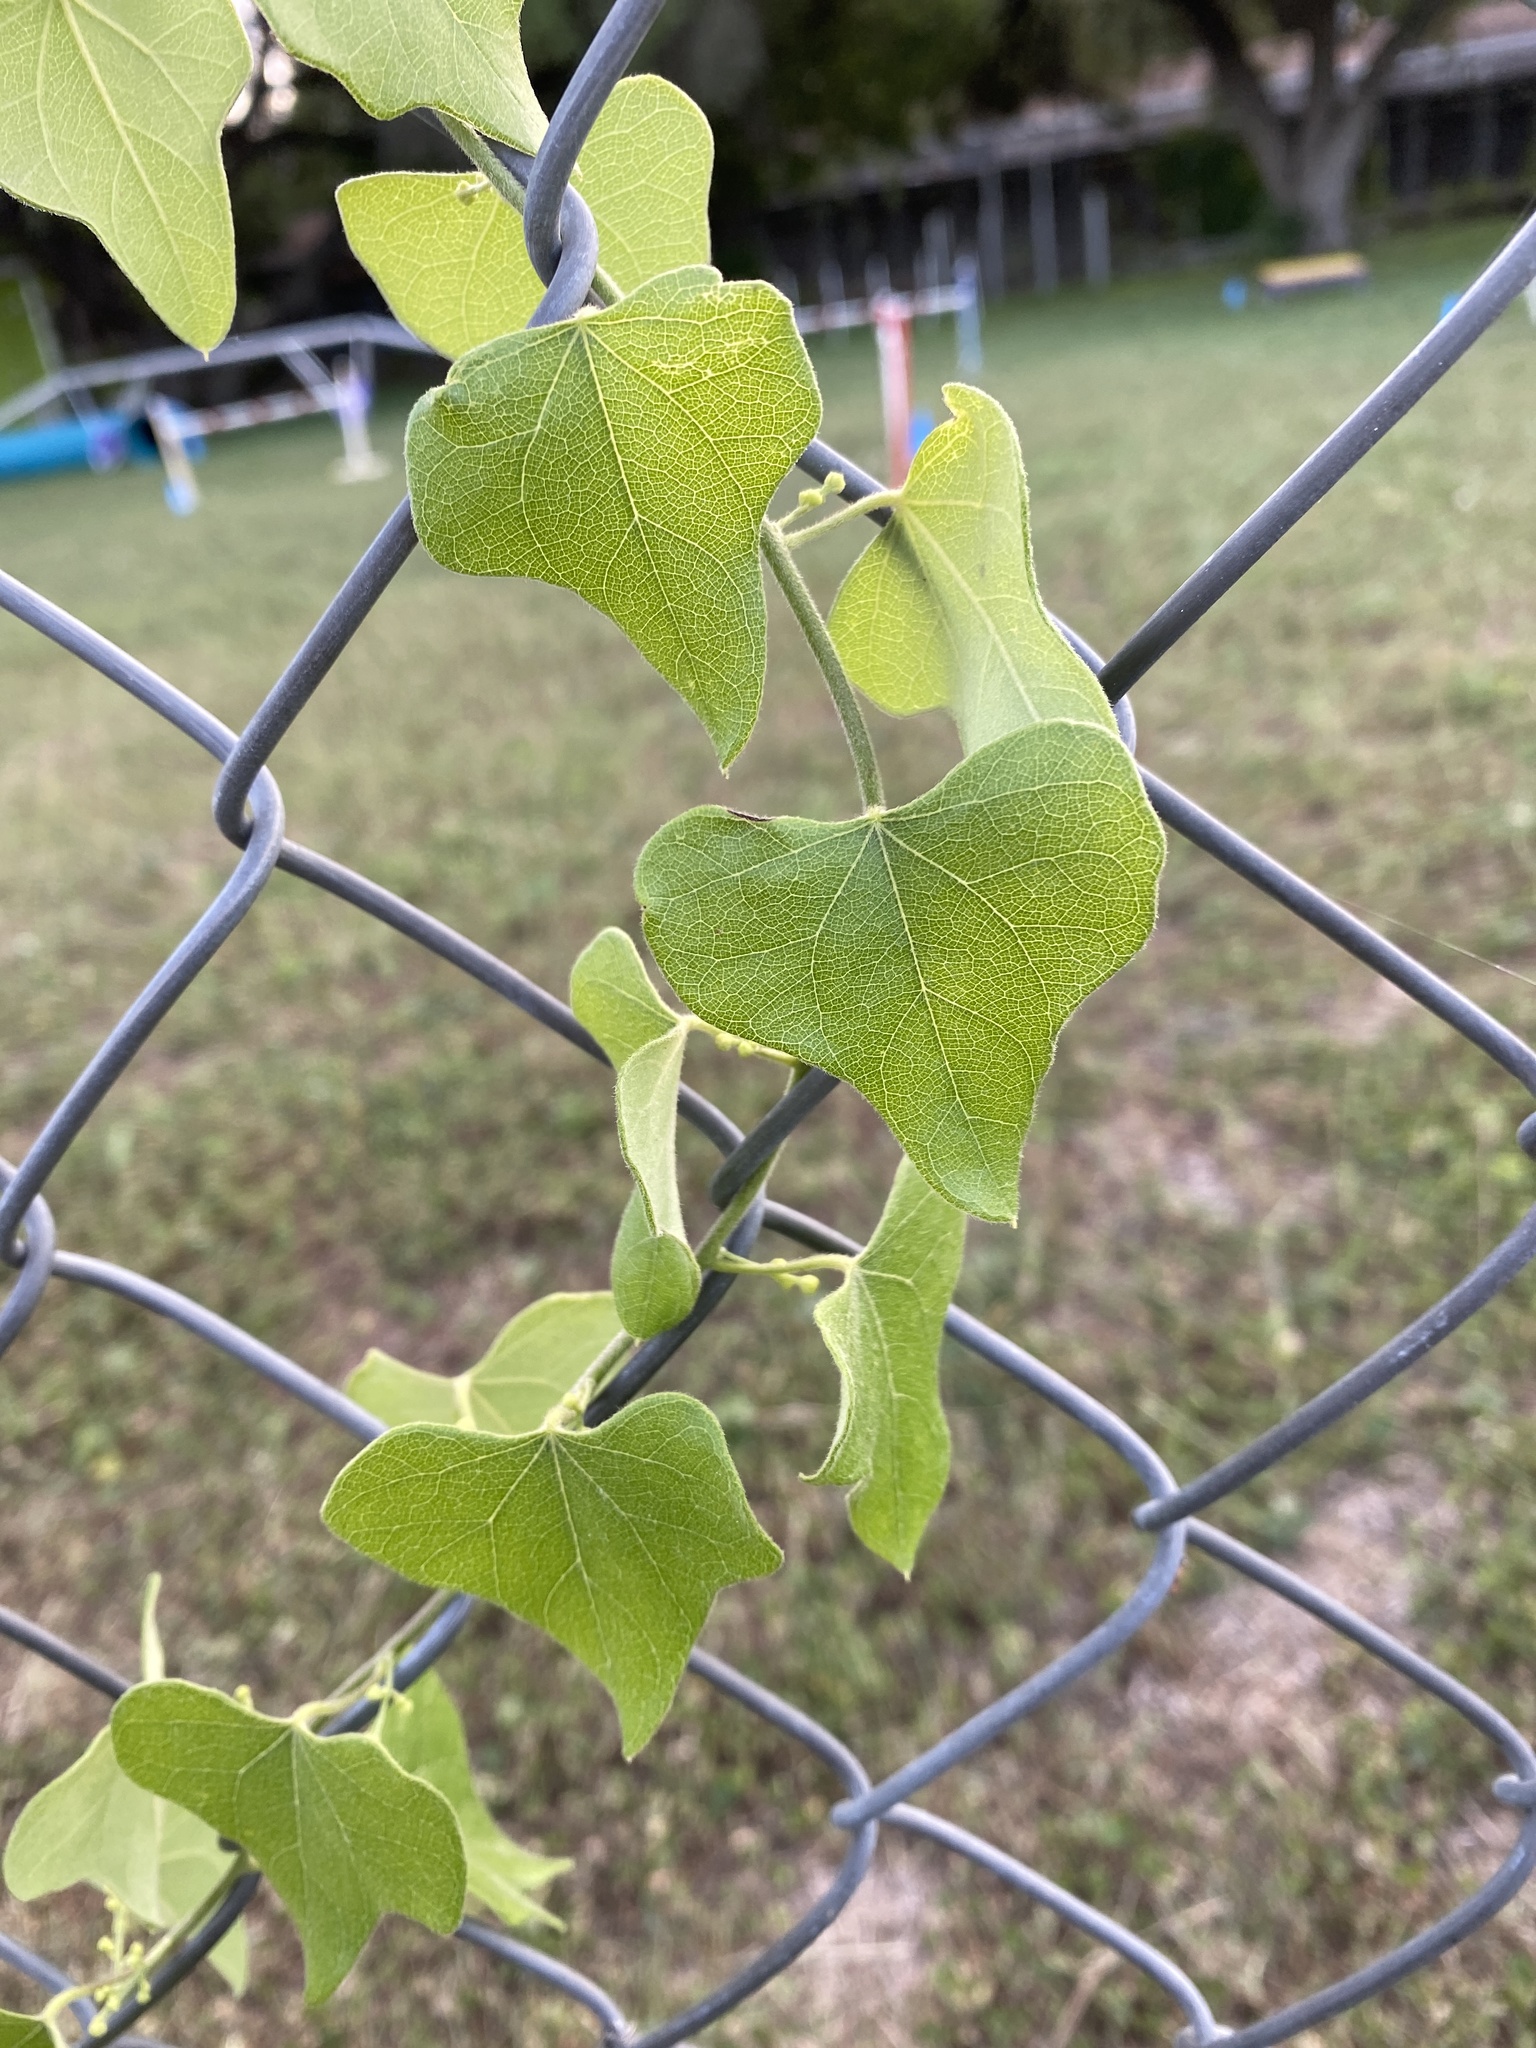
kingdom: Plantae
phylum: Tracheophyta
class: Magnoliopsida
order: Ranunculales
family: Menispermaceae
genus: Cocculus
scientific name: Cocculus carolinus
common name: Carolina moonseed
